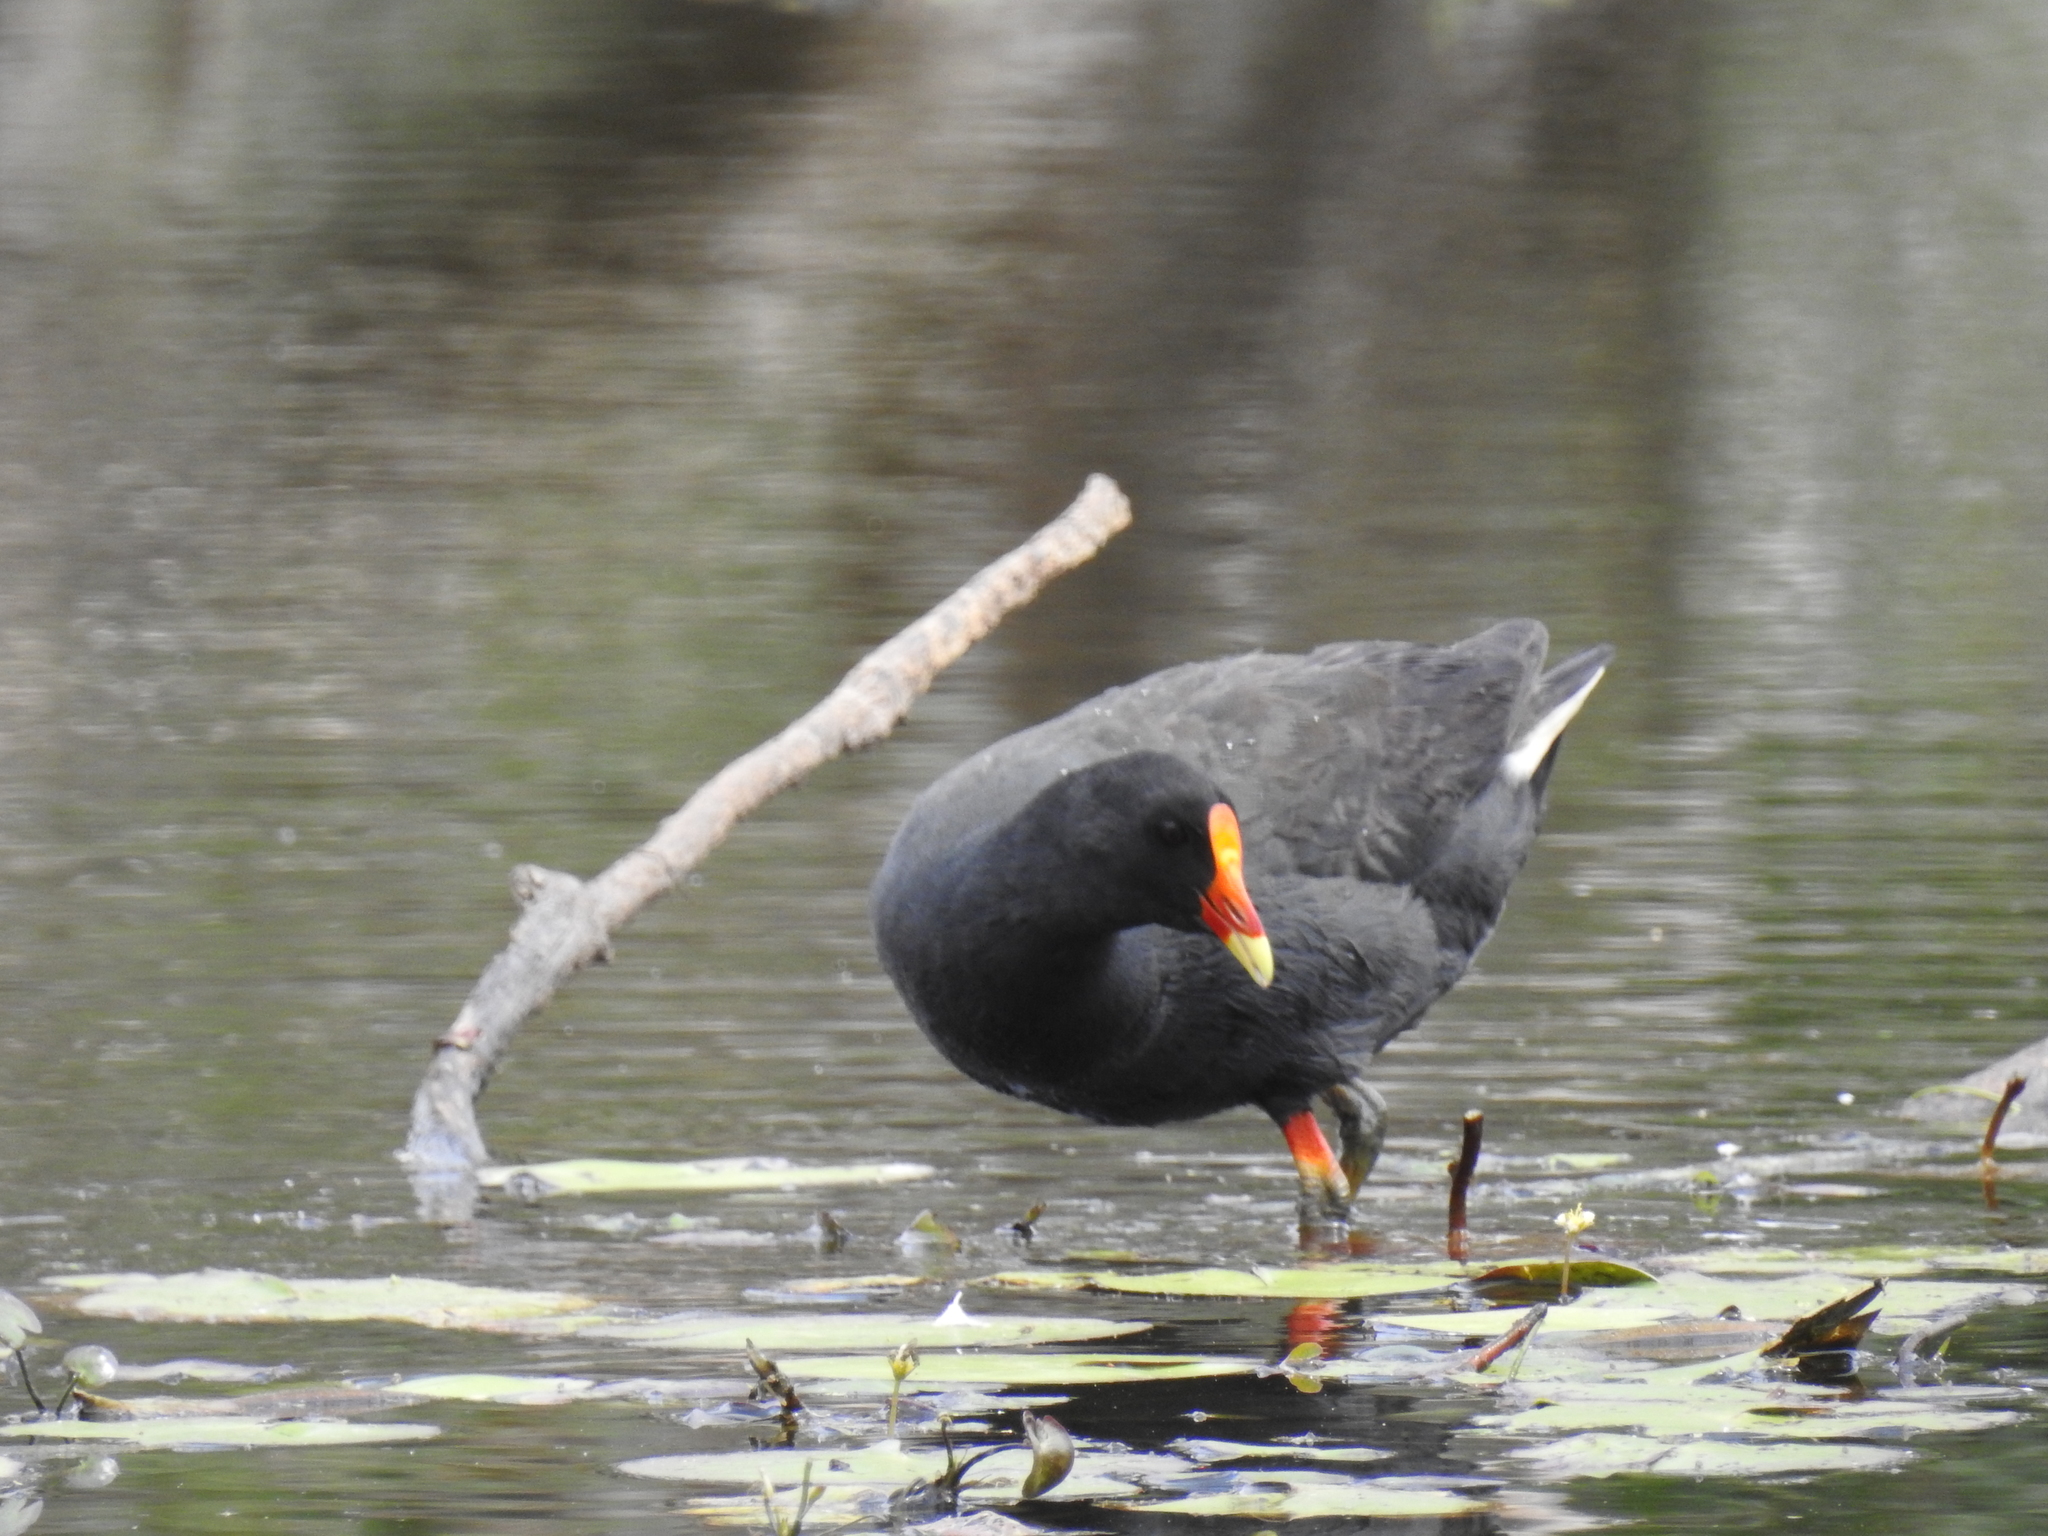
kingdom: Animalia
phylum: Chordata
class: Aves
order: Gruiformes
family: Rallidae
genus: Gallinula
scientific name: Gallinula tenebrosa
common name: Dusky moorhen
